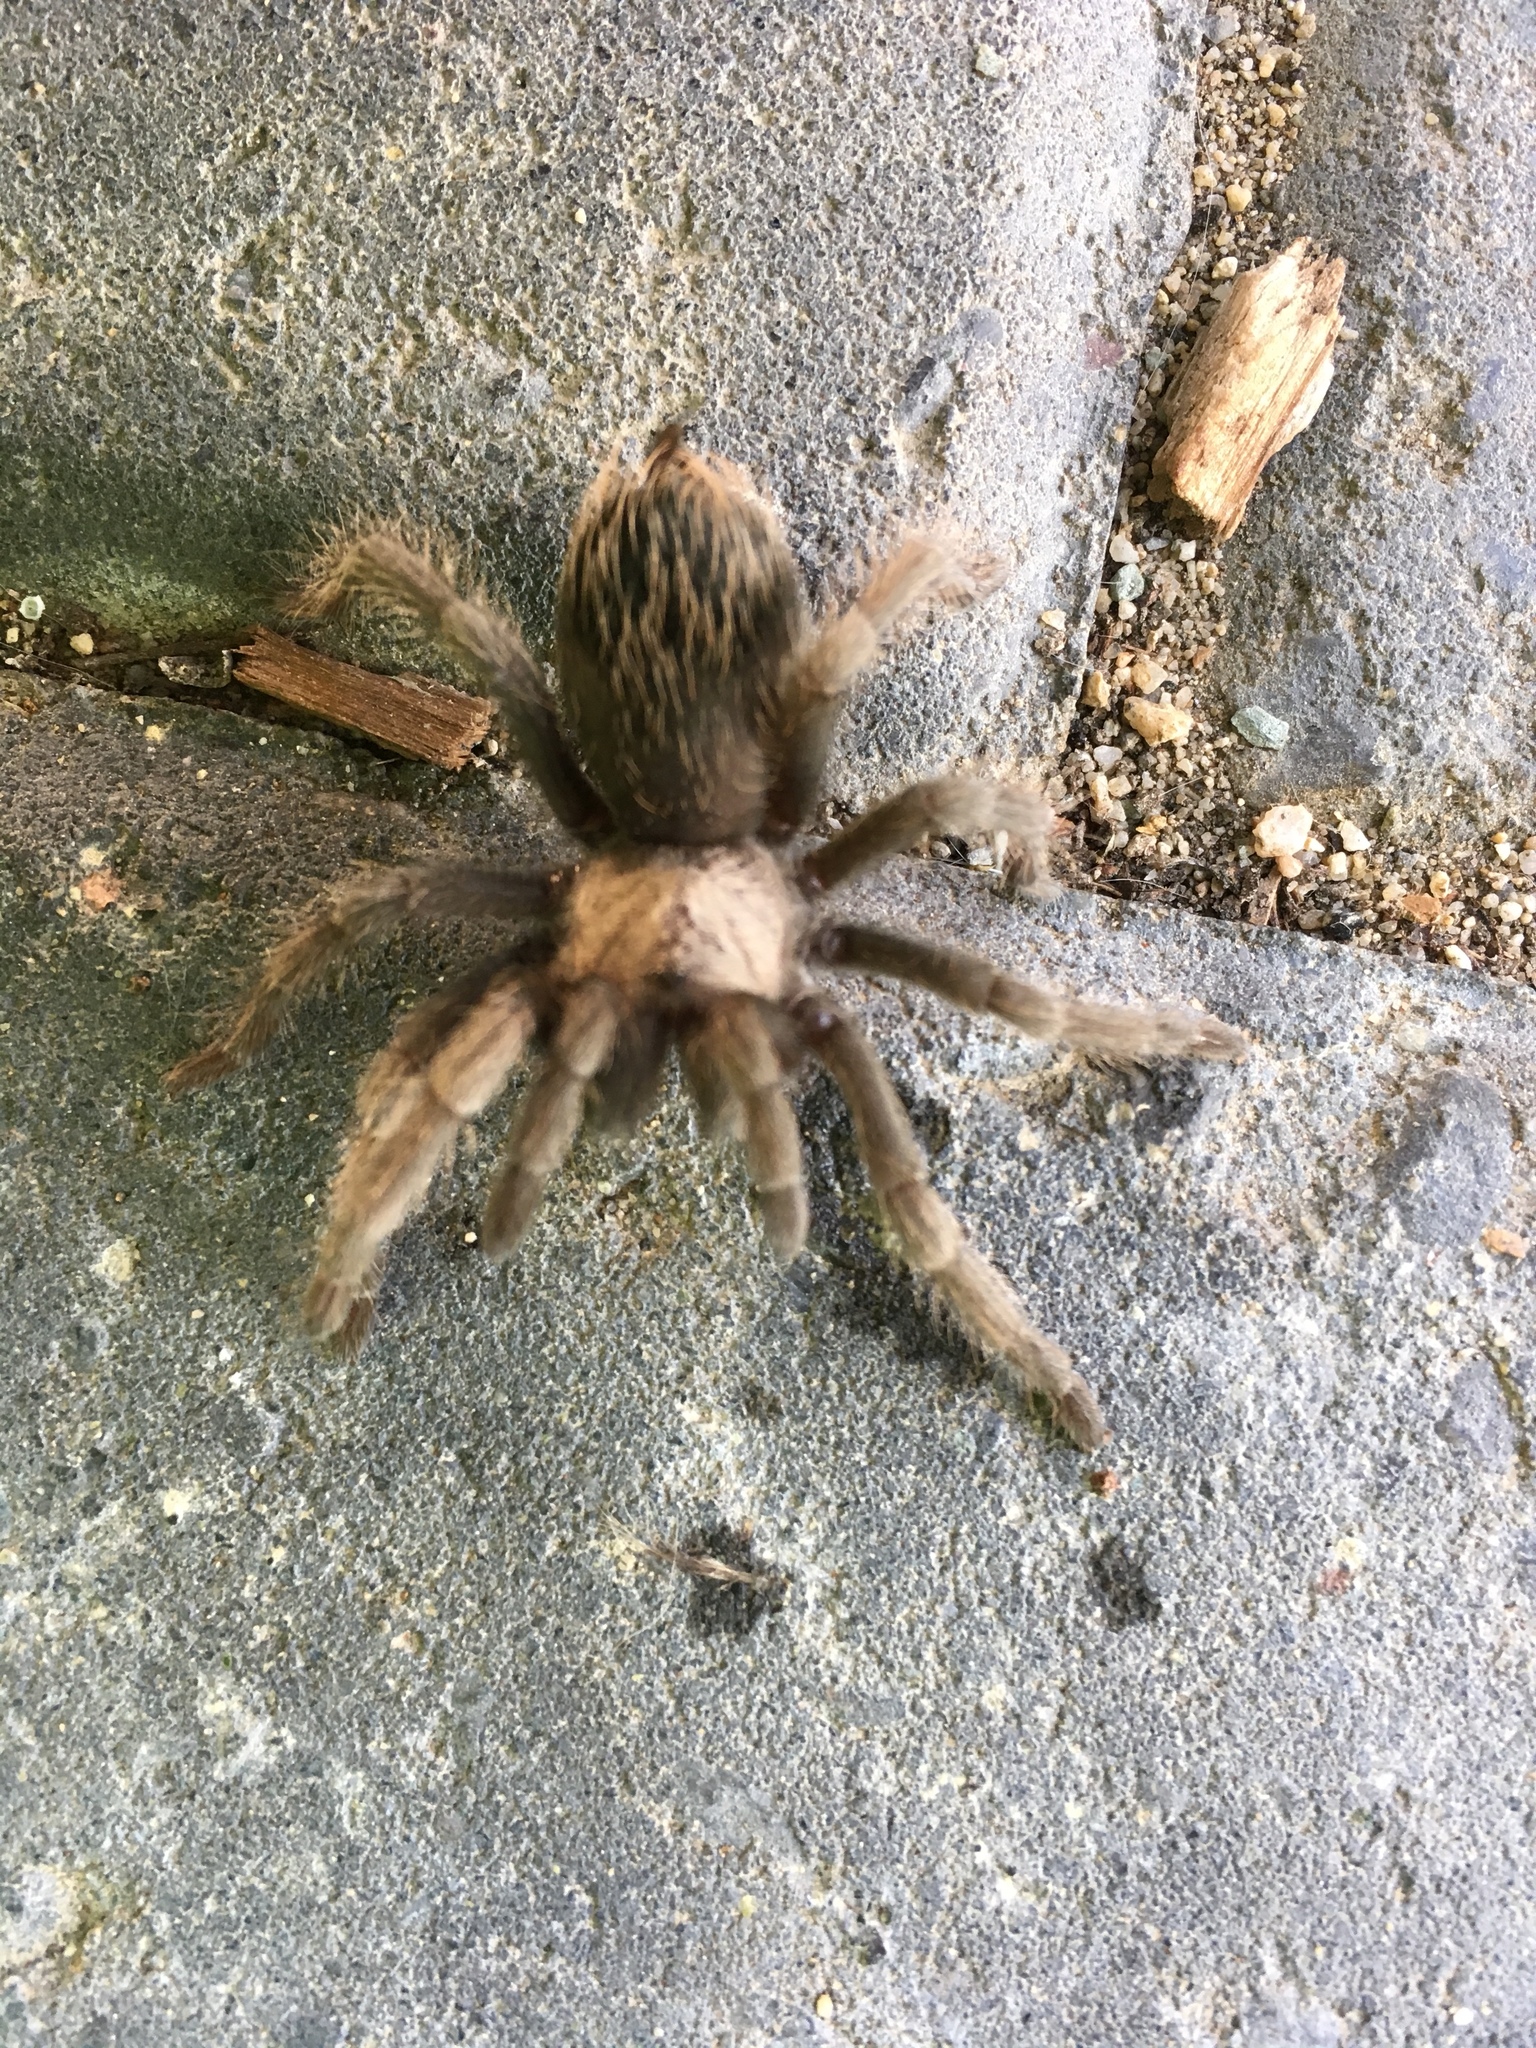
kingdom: Animalia
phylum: Arthropoda
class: Arachnida
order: Araneae
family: Theraphosidae
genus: Aphonopelma
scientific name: Aphonopelma iodius
